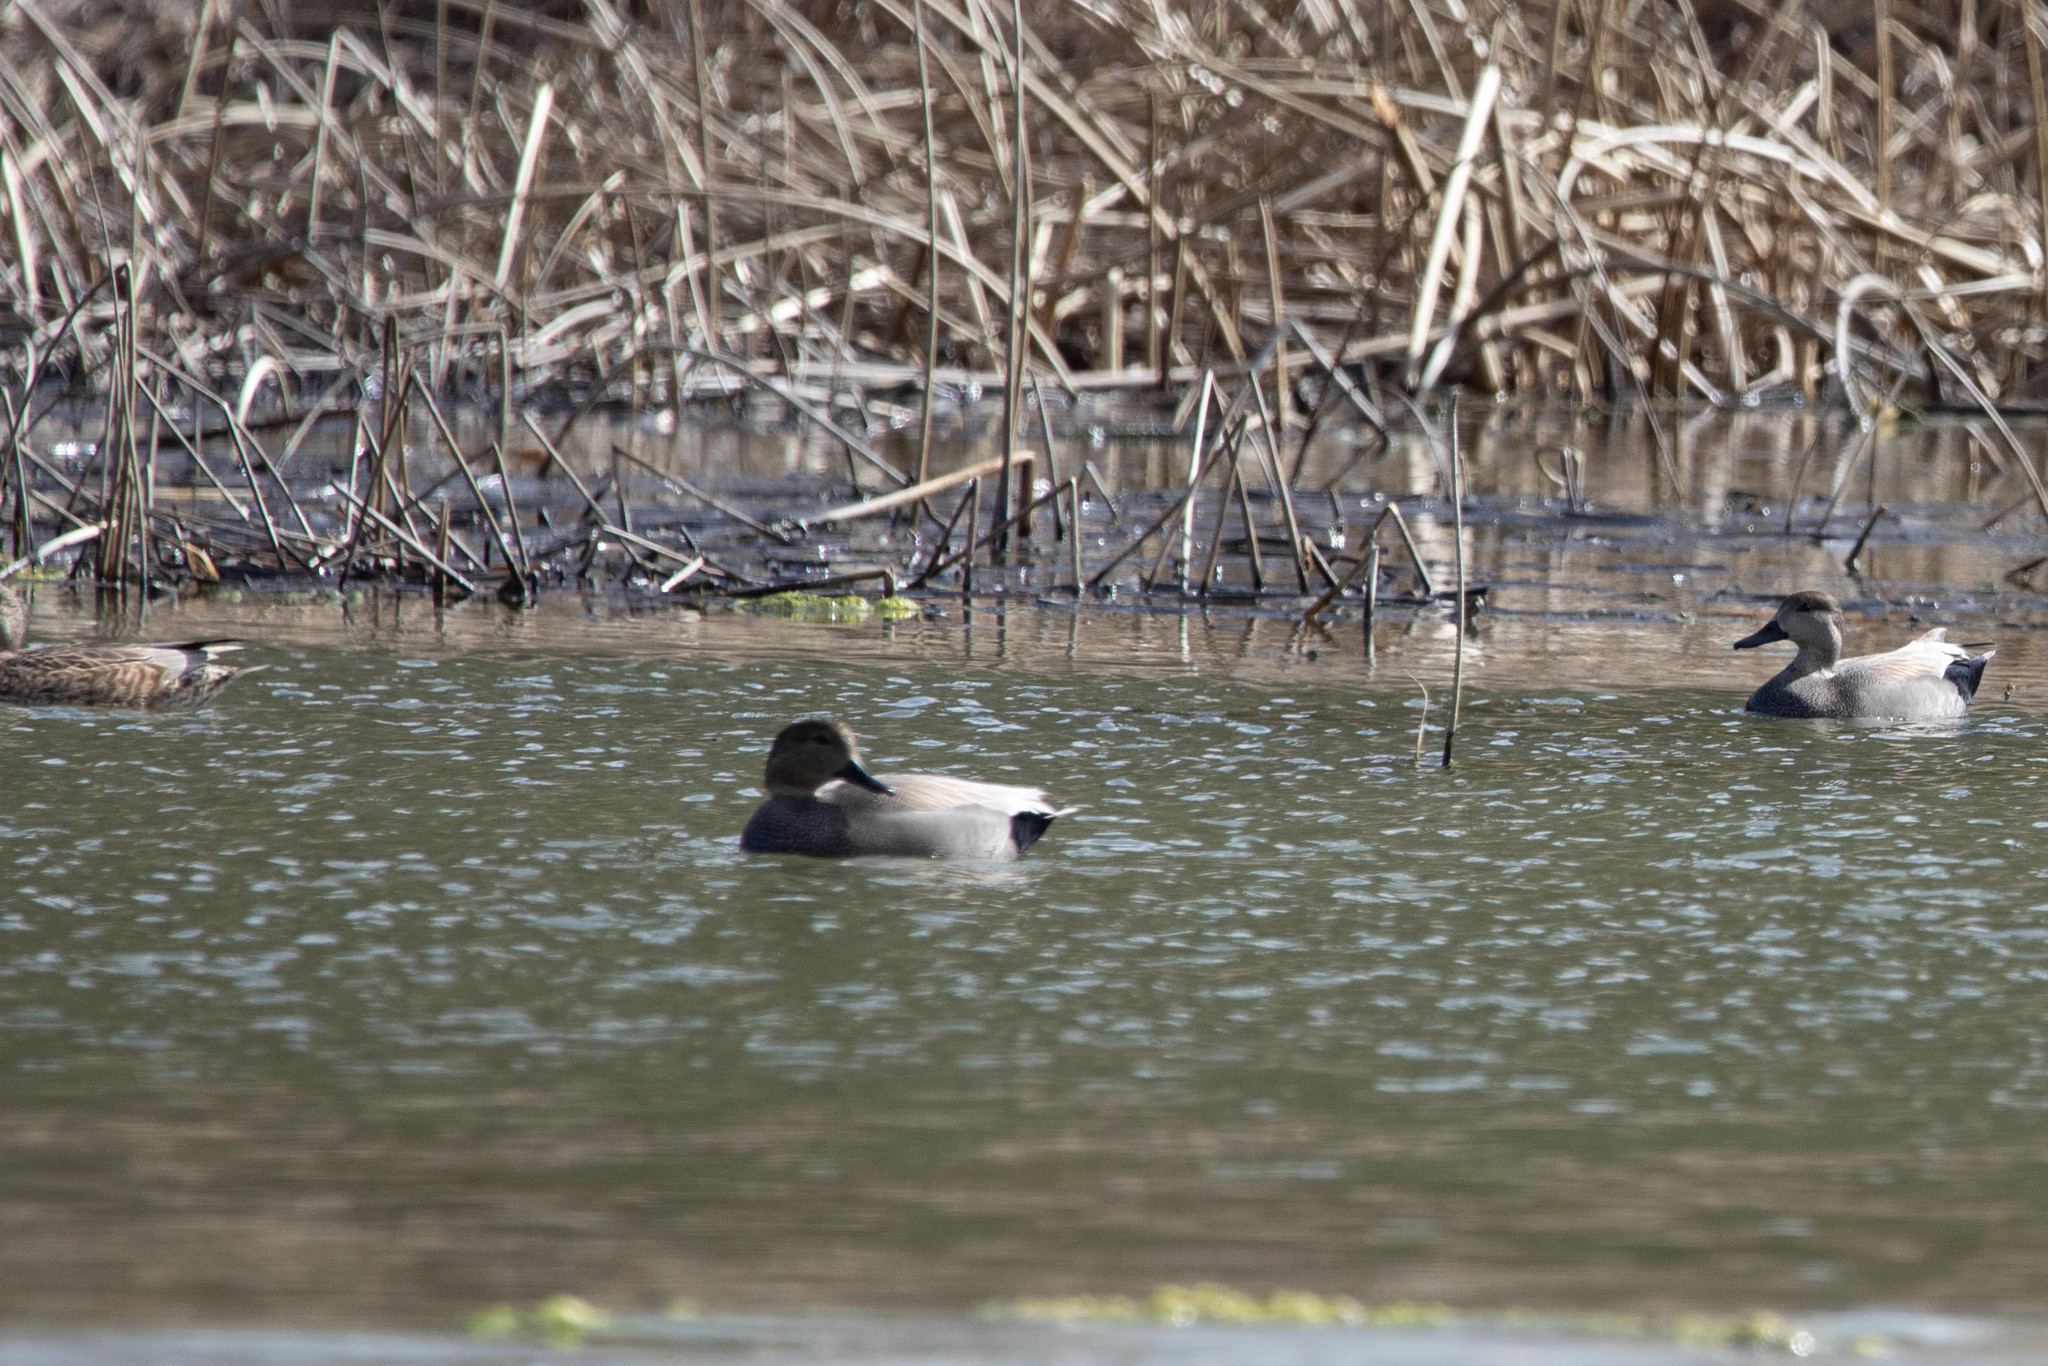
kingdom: Animalia
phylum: Chordata
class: Aves
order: Anseriformes
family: Anatidae
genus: Mareca
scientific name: Mareca strepera
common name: Gadwall
